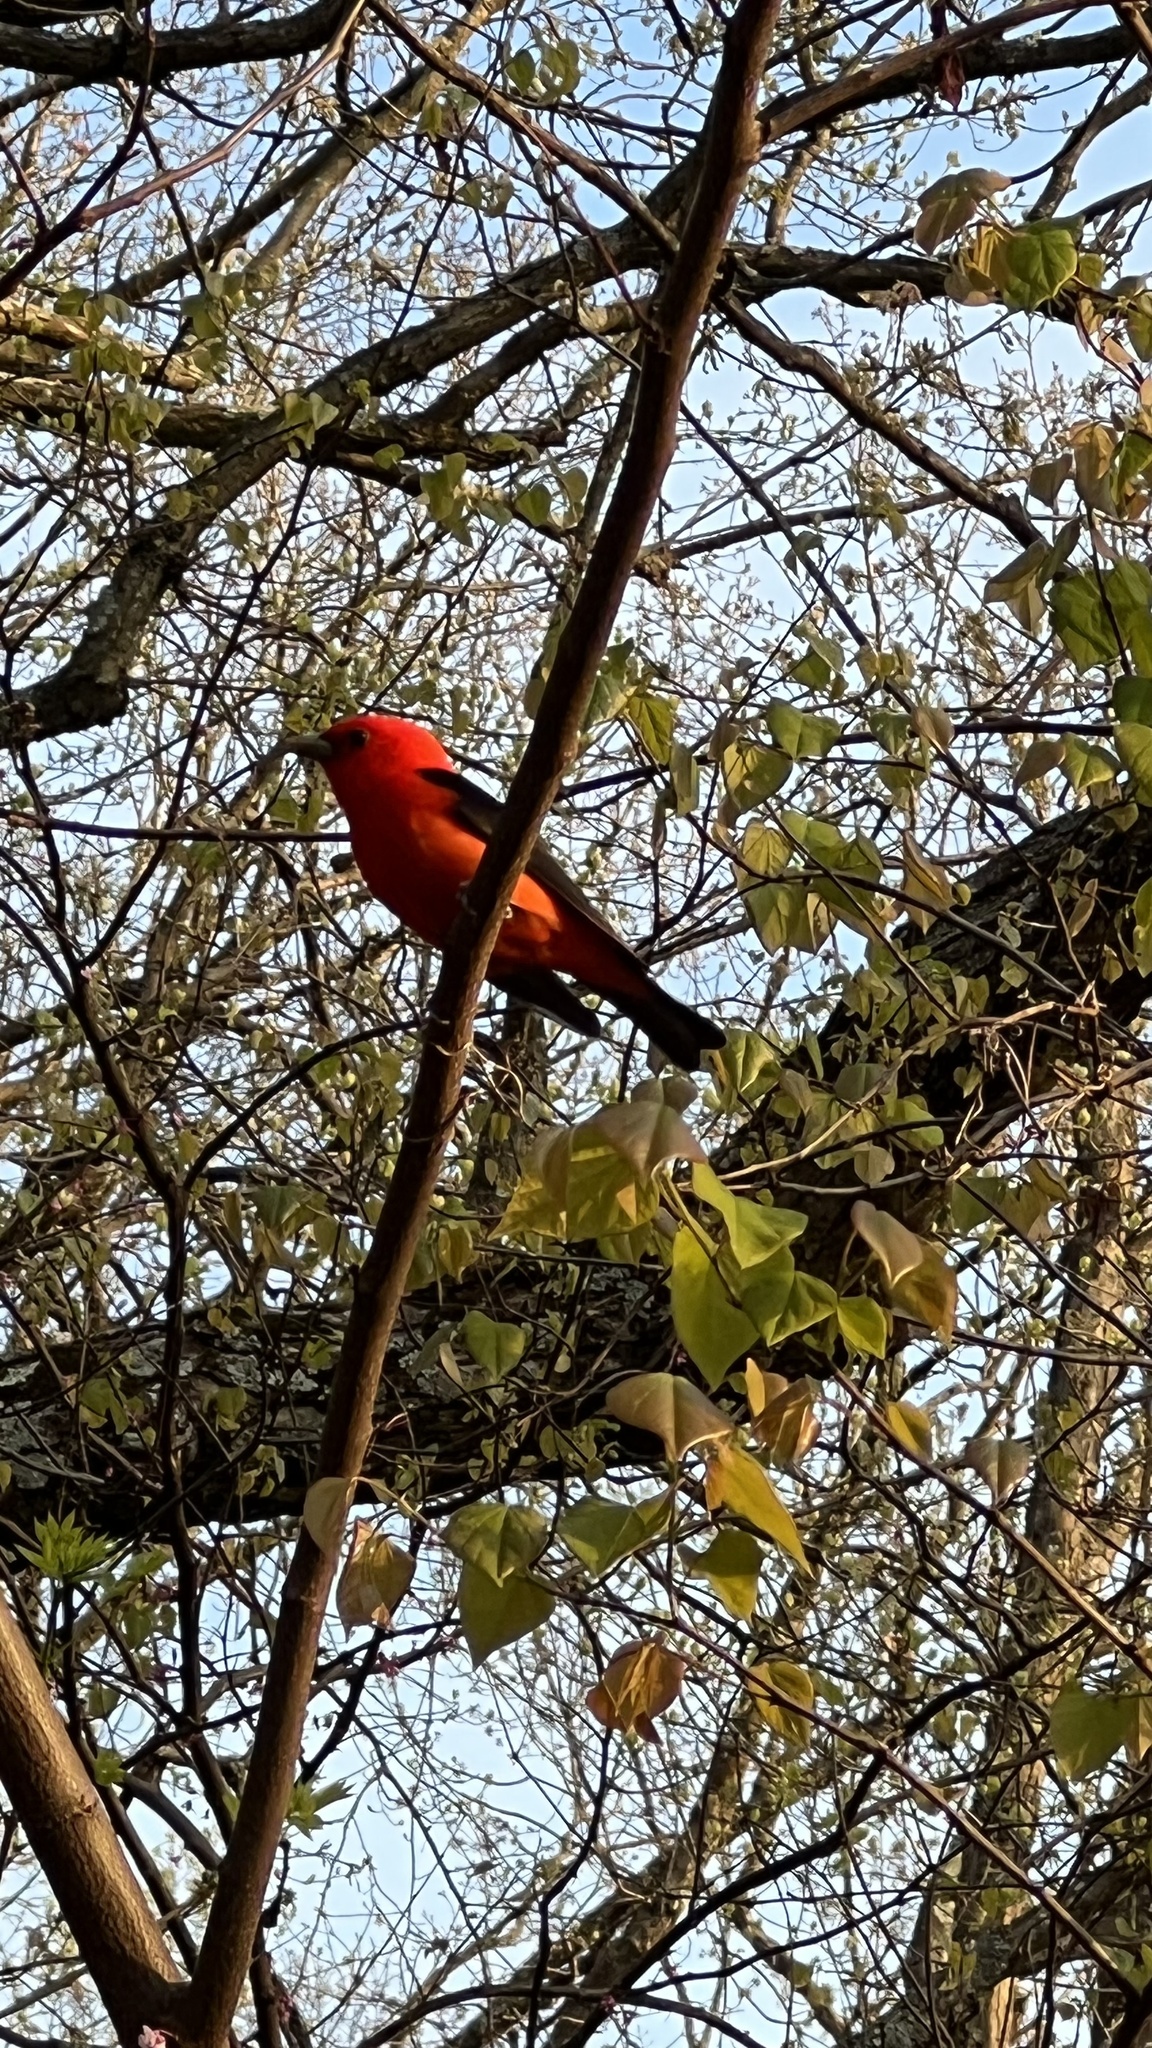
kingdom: Animalia
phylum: Chordata
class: Aves
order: Passeriformes
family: Cardinalidae
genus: Piranga
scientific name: Piranga olivacea
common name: Scarlet tanager
